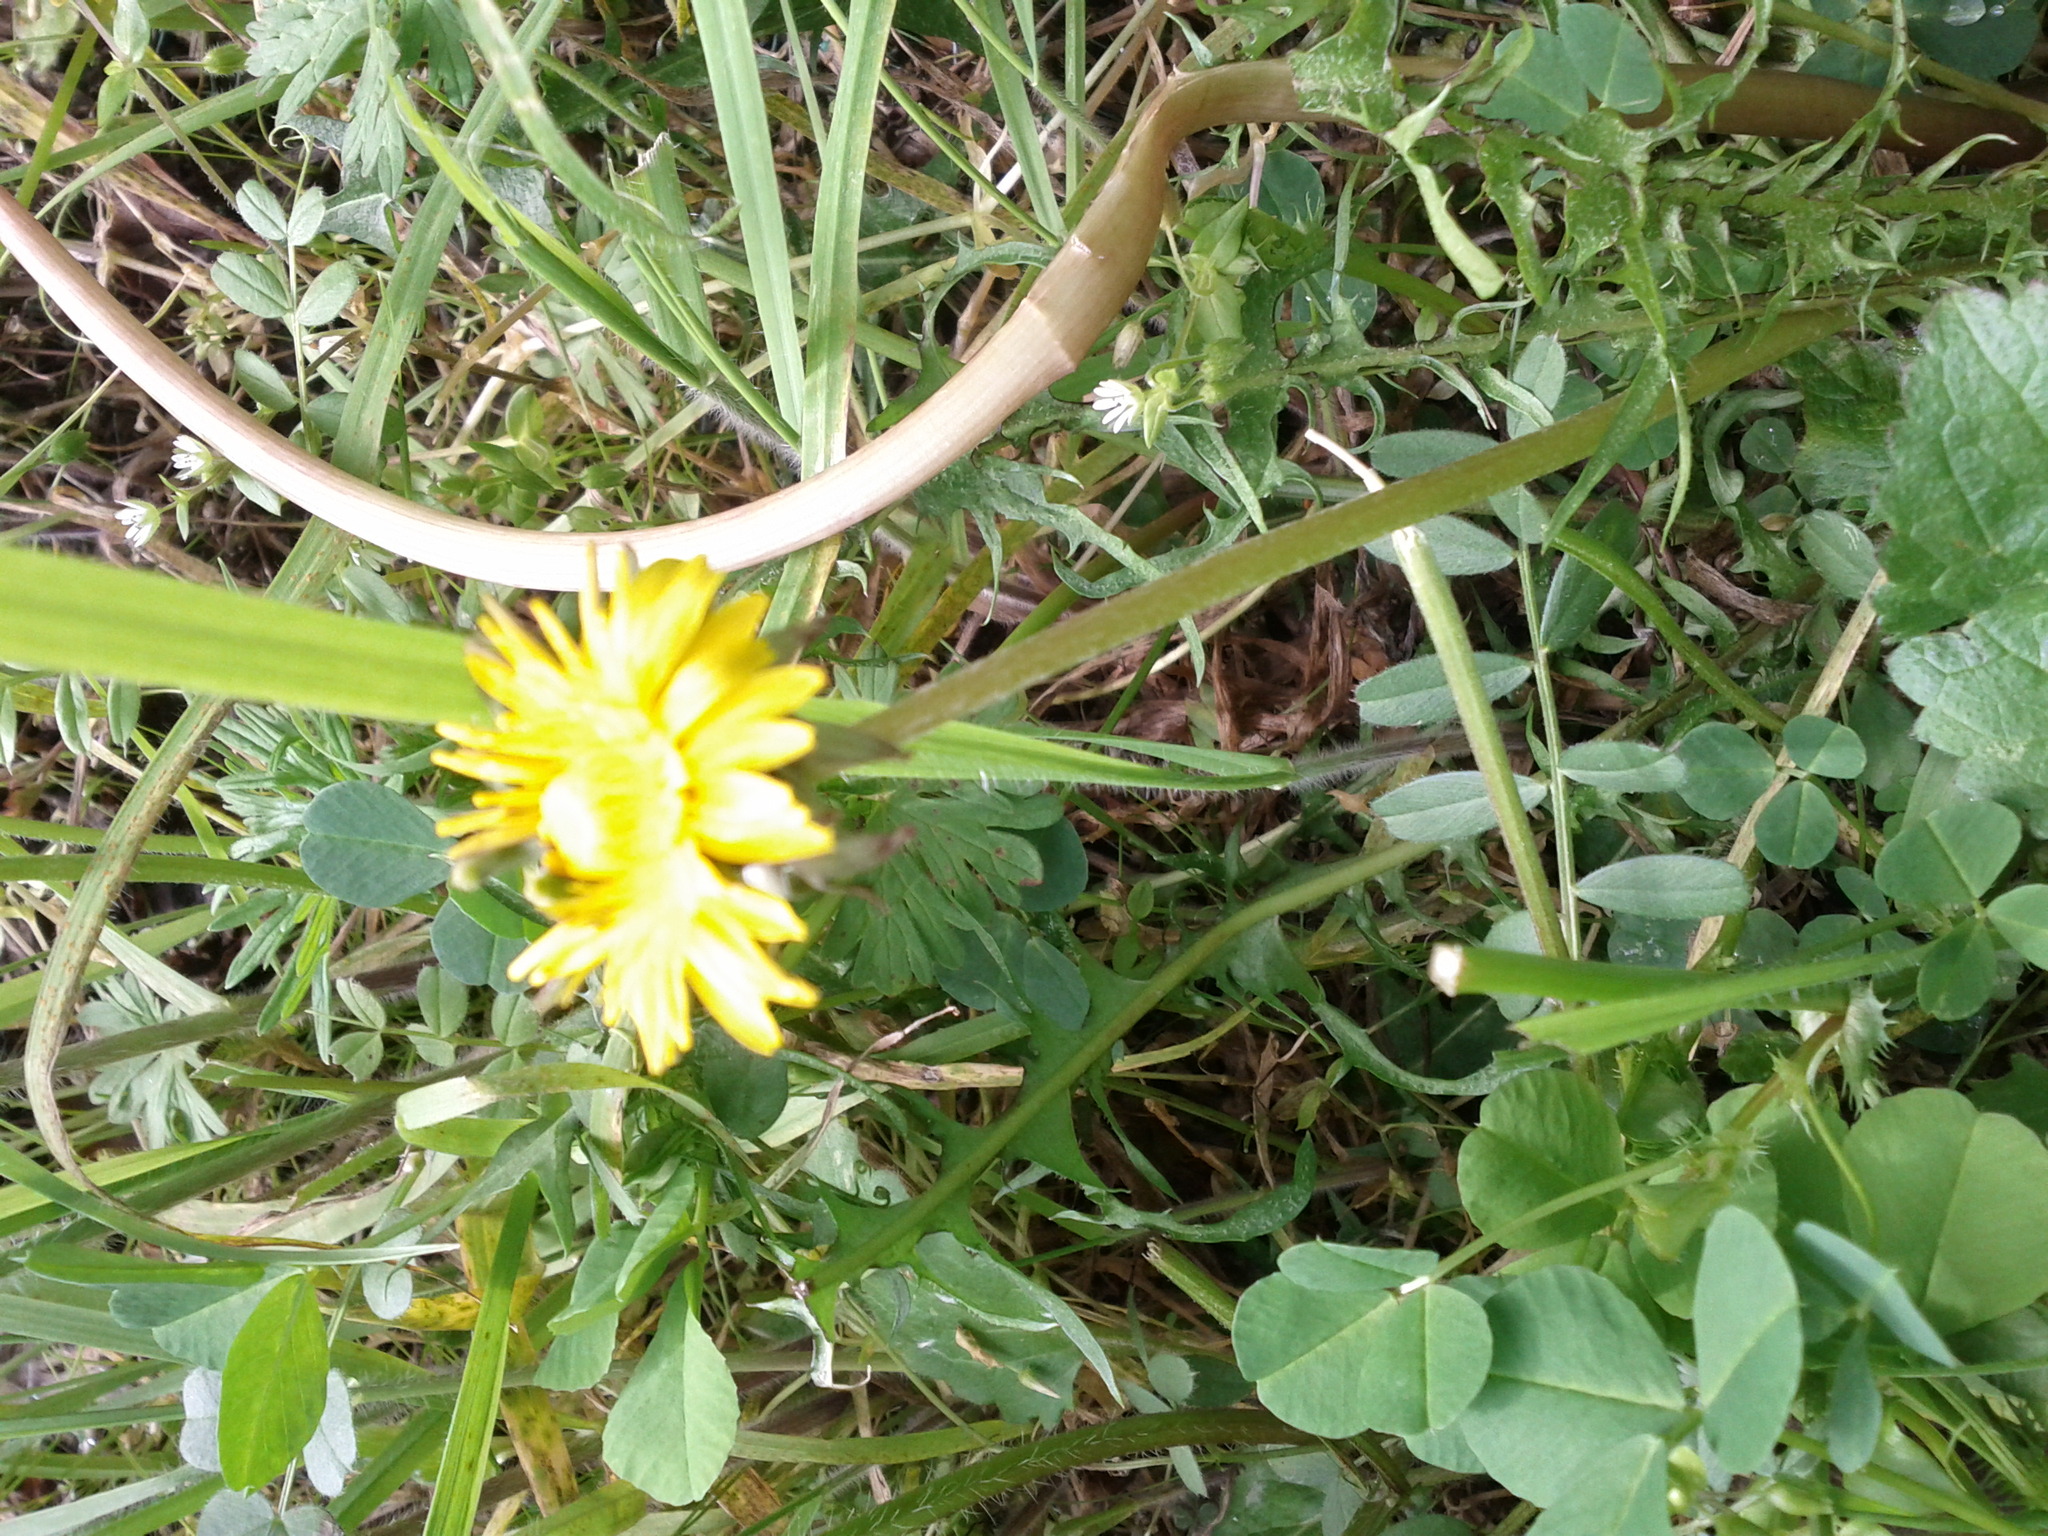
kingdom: Plantae
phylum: Tracheophyta
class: Magnoliopsida
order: Asterales
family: Asteraceae
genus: Taraxacum
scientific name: Taraxacum
